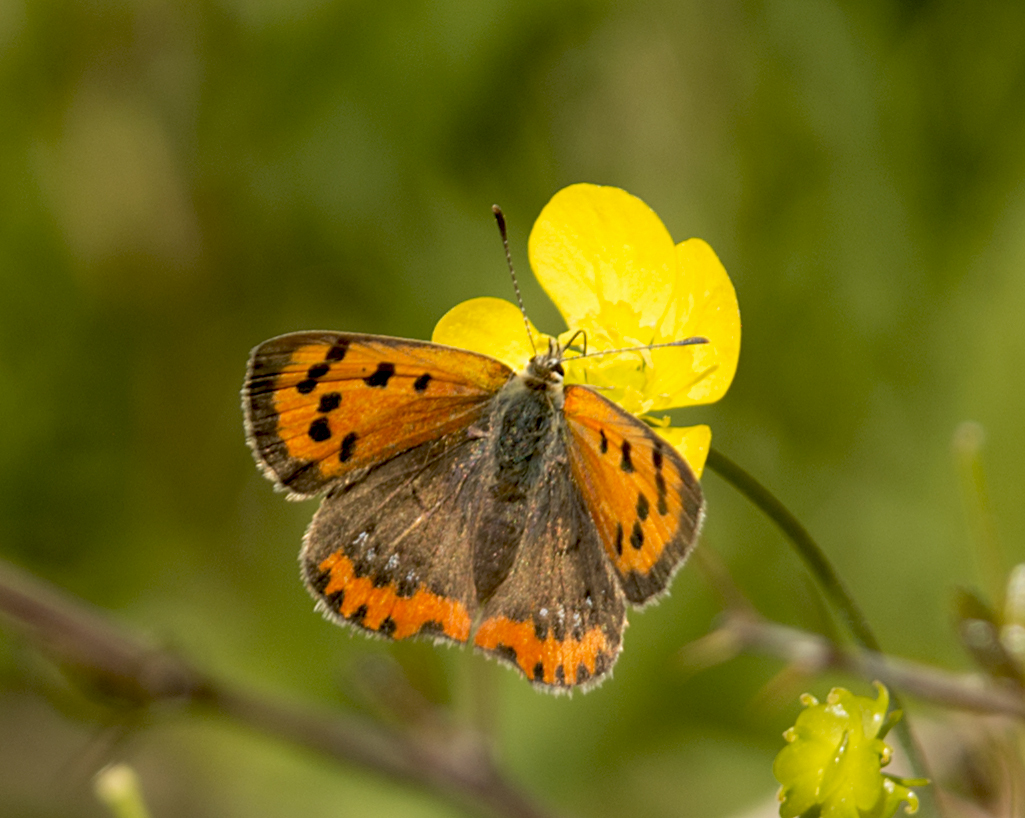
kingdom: Animalia
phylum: Arthropoda
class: Insecta
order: Lepidoptera
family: Lycaenidae
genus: Lycaena
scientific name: Lycaena phlaeas
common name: Small copper
